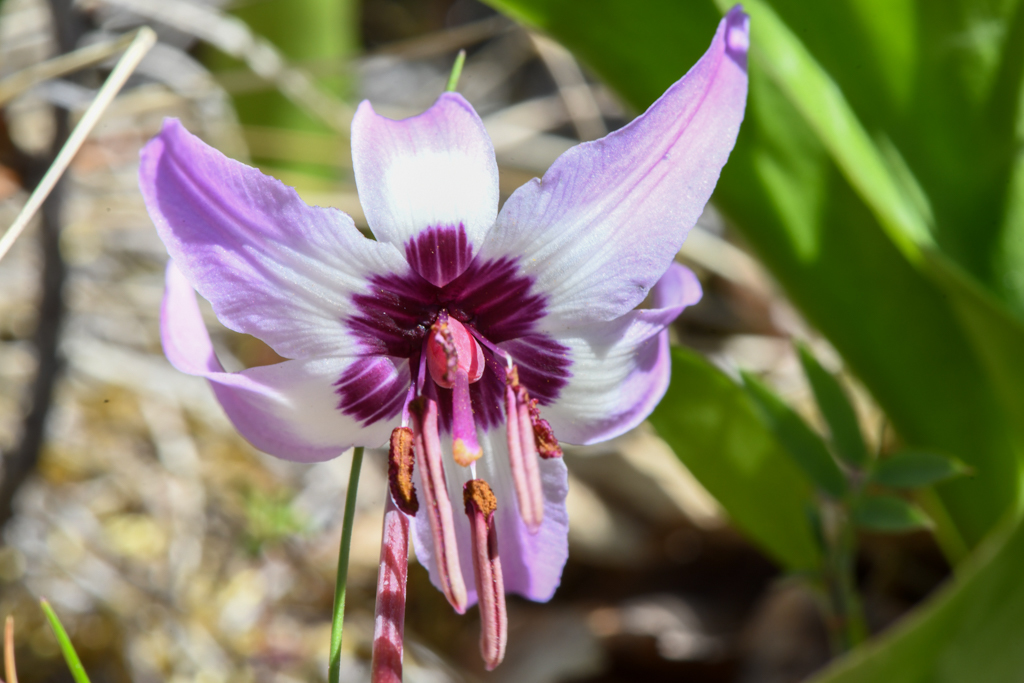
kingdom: Plantae
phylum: Tracheophyta
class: Liliopsida
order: Liliales
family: Liliaceae
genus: Erythronium
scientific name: Erythronium hendersonii
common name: Henderson's fawn-lily
